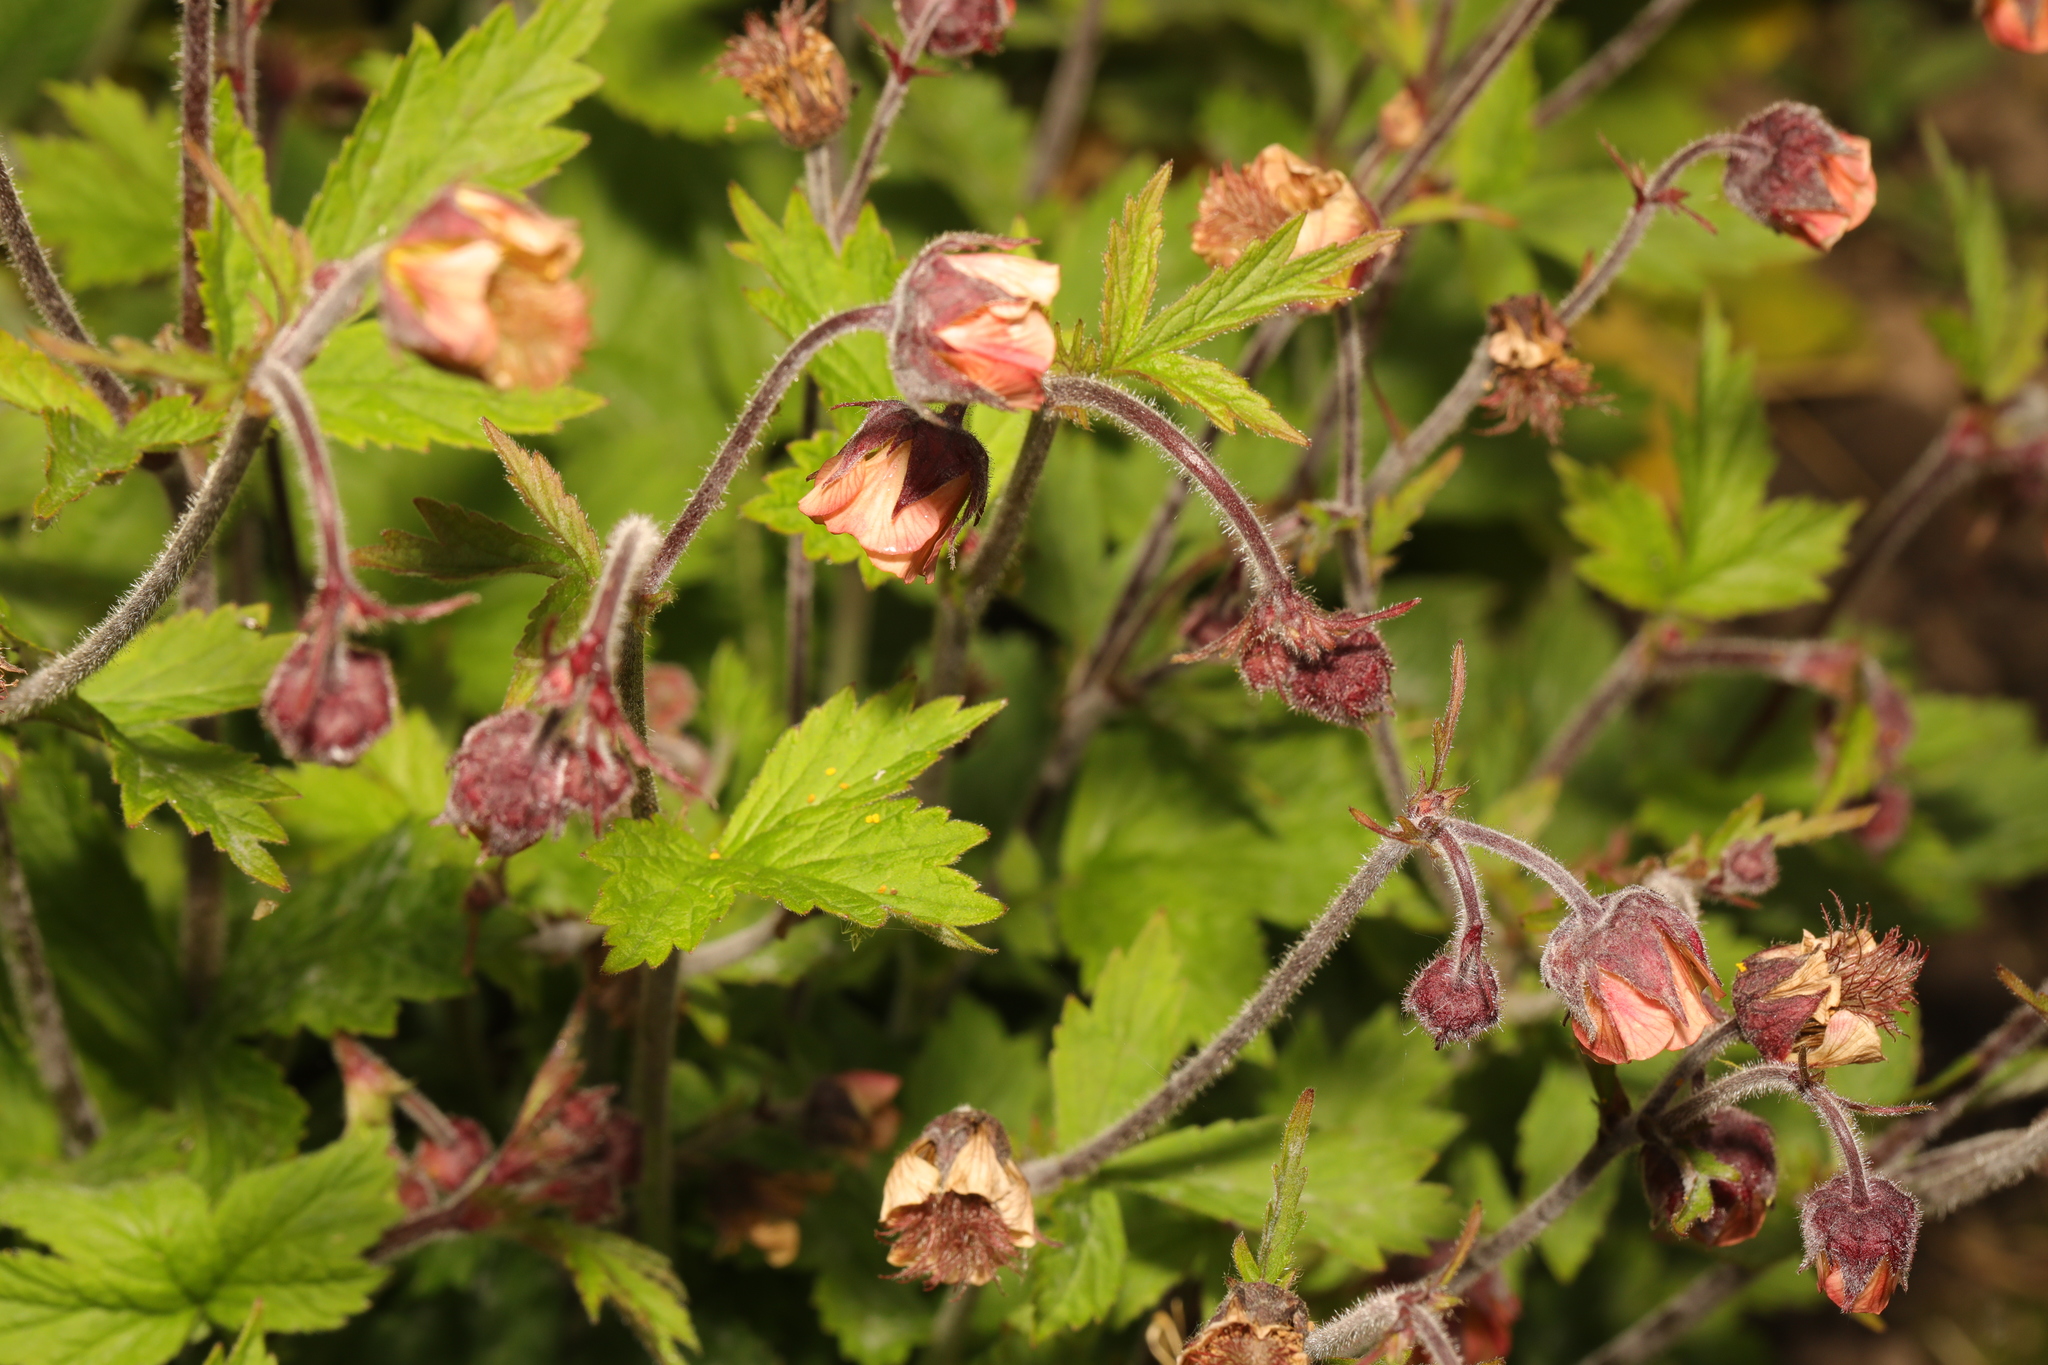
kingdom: Plantae
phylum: Tracheophyta
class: Magnoliopsida
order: Rosales
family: Rosaceae
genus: Geum
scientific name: Geum rivale
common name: Water avens
